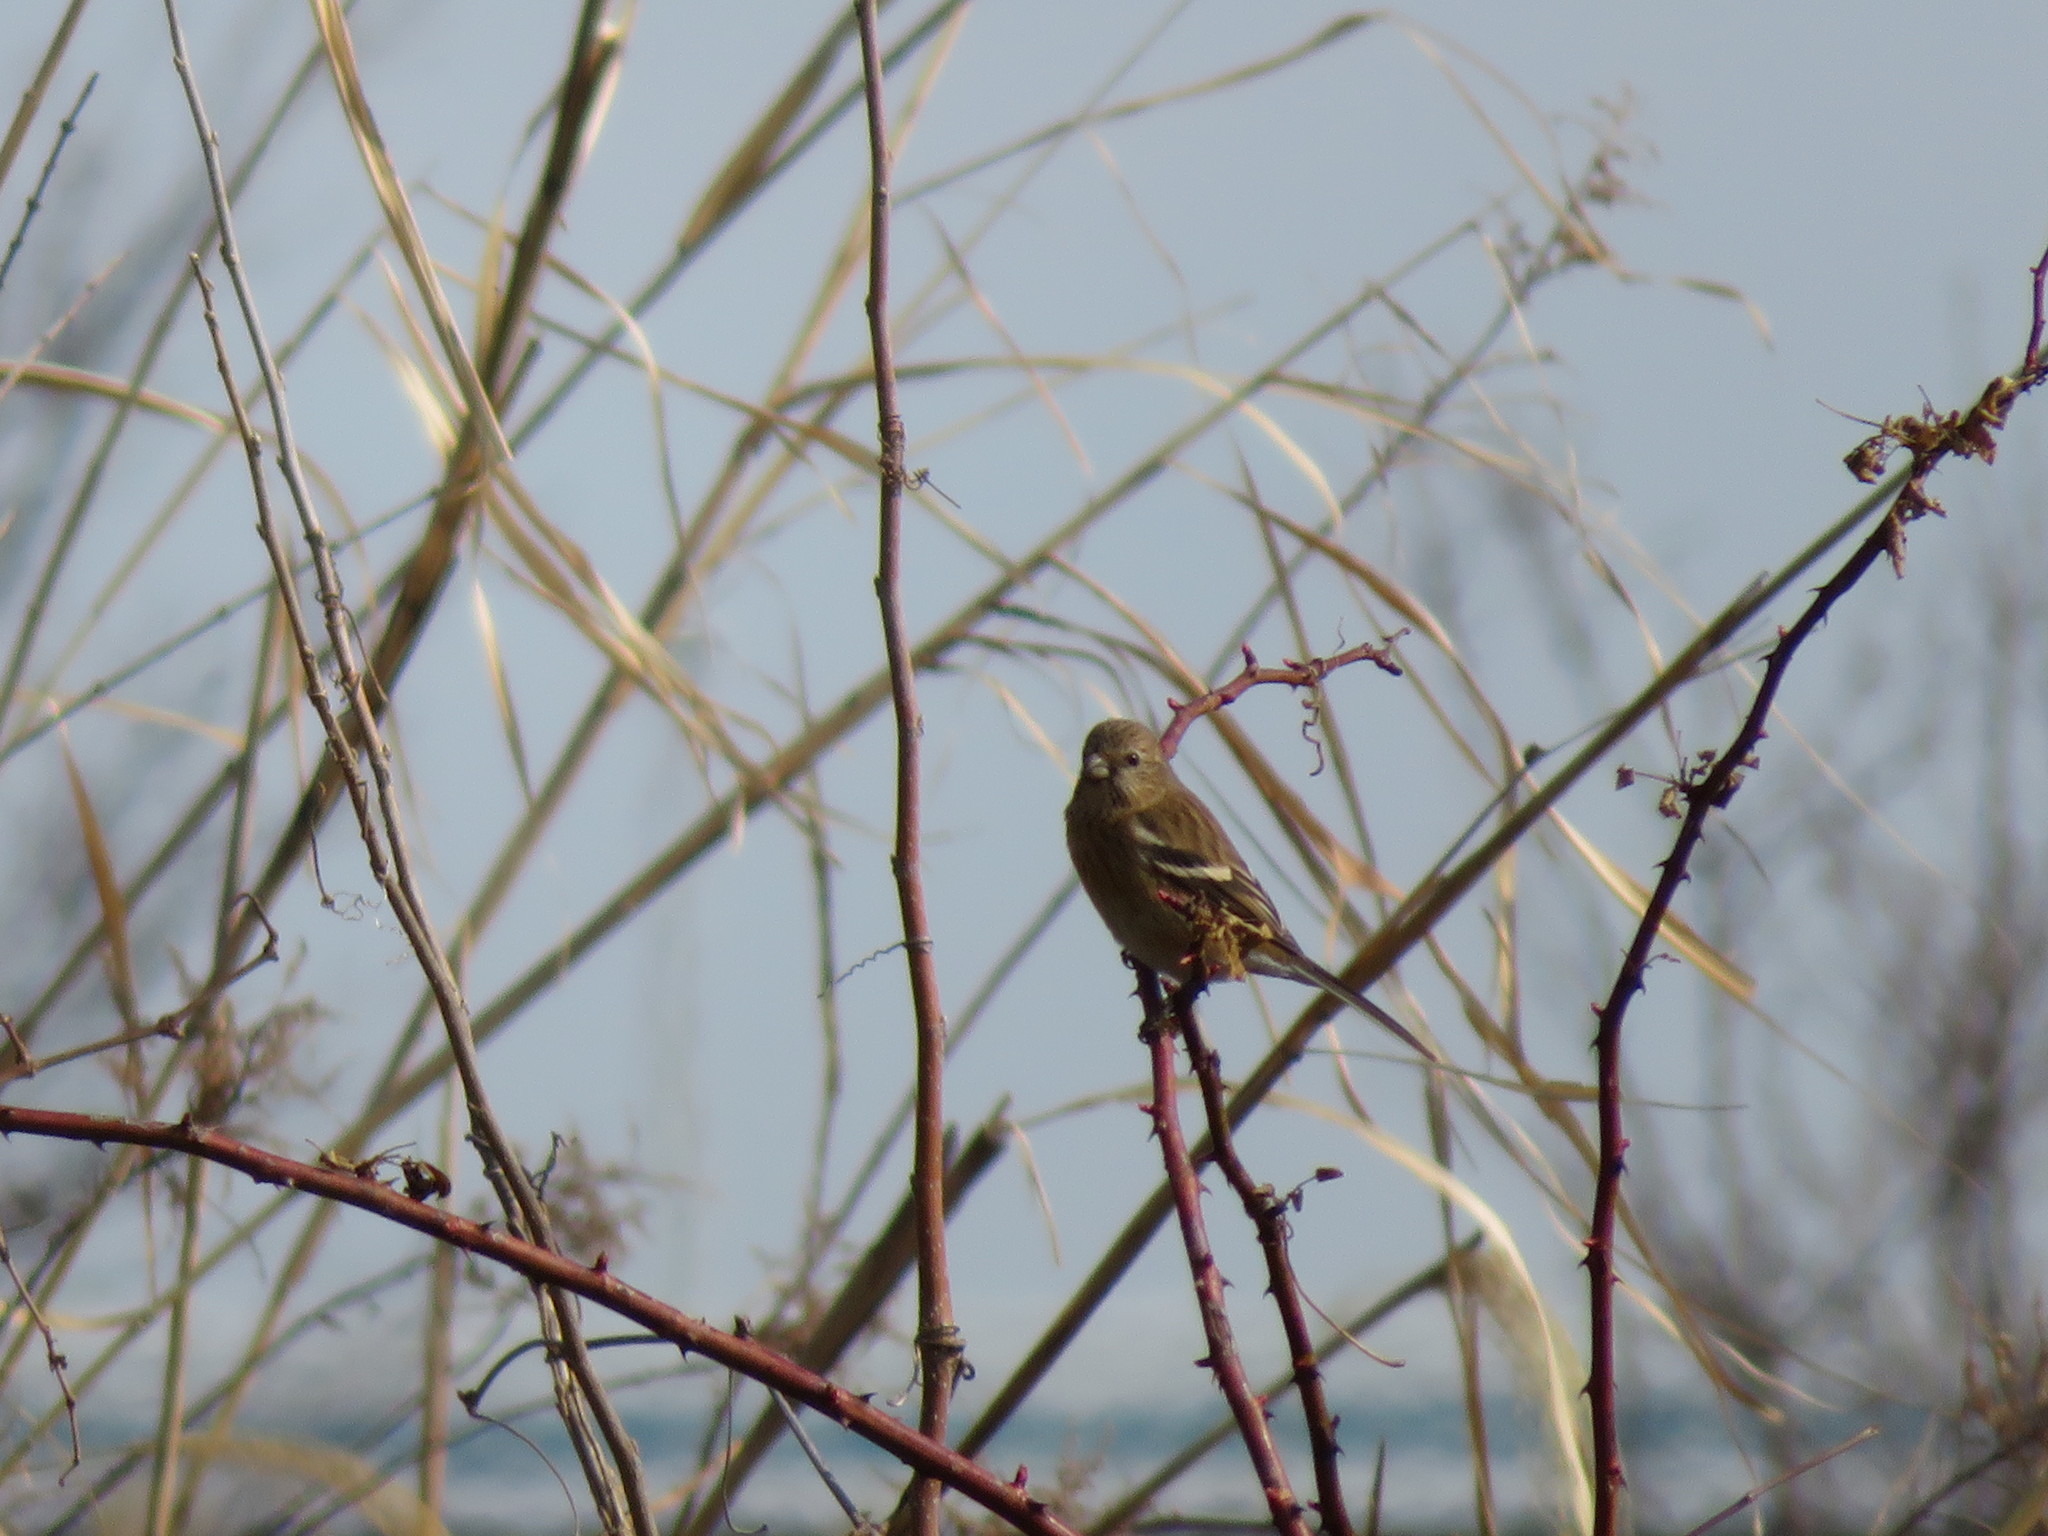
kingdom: Animalia
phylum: Chordata
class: Aves
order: Passeriformes
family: Fringillidae
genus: Carpodacus
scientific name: Carpodacus sibiricus
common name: Long-tailed rosefinch
